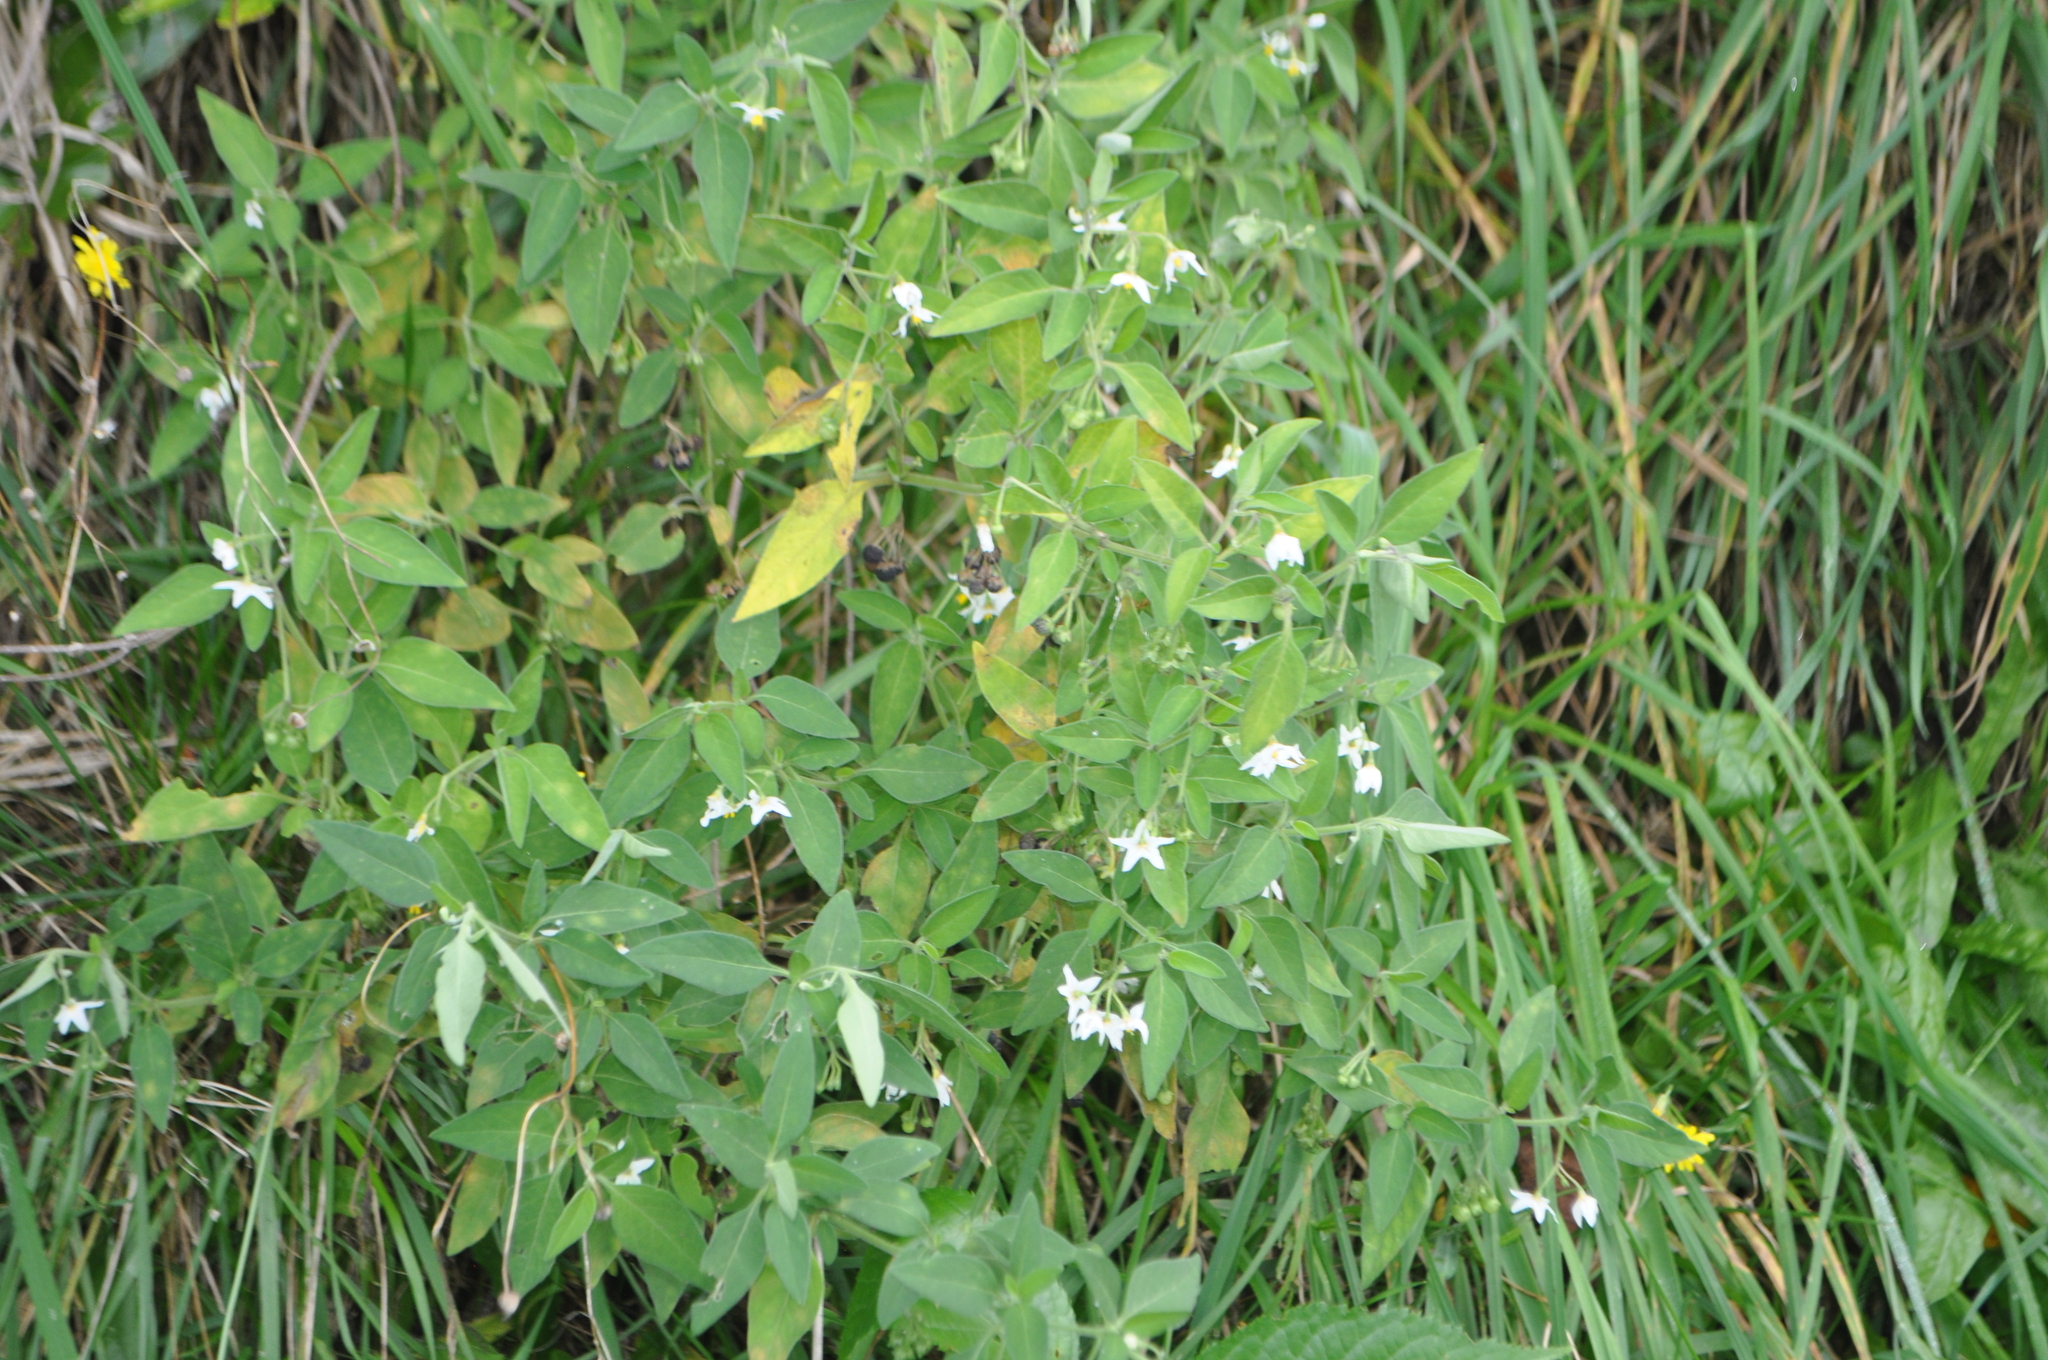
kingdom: Plantae
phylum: Tracheophyta
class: Magnoliopsida
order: Solanales
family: Solanaceae
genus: Solanum
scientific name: Solanum chenopodioides
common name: Tall nightshade
